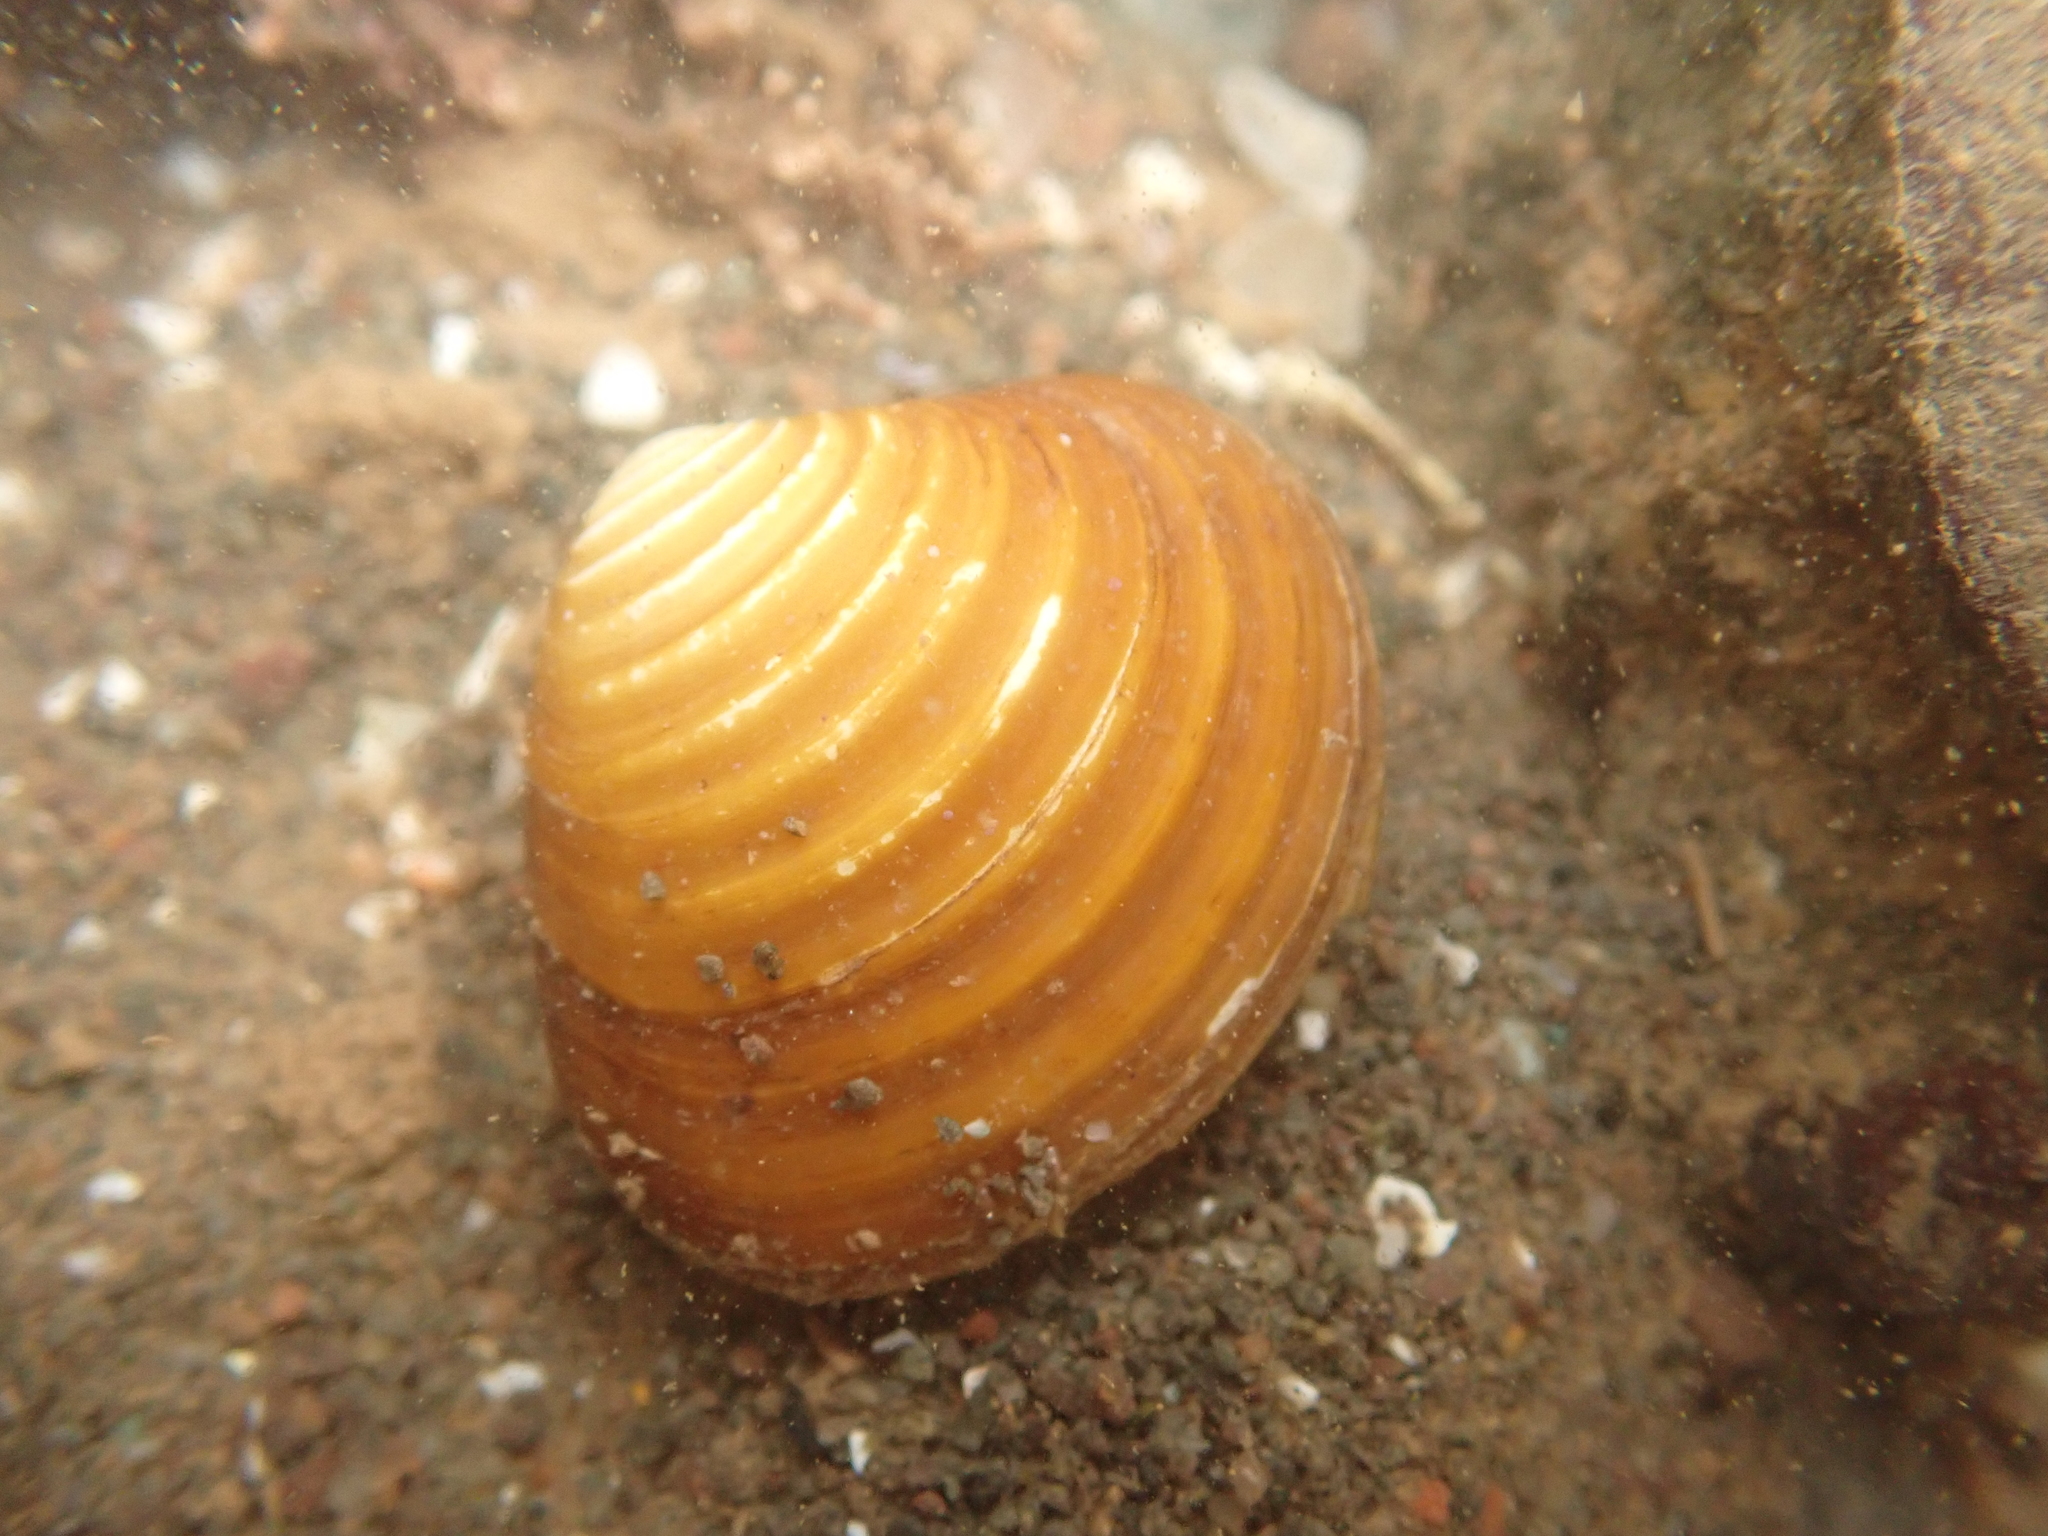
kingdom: Animalia
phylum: Mollusca
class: Bivalvia
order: Carditida
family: Astartidae
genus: Astarte
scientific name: Astarte undata
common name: Wavy astarte
